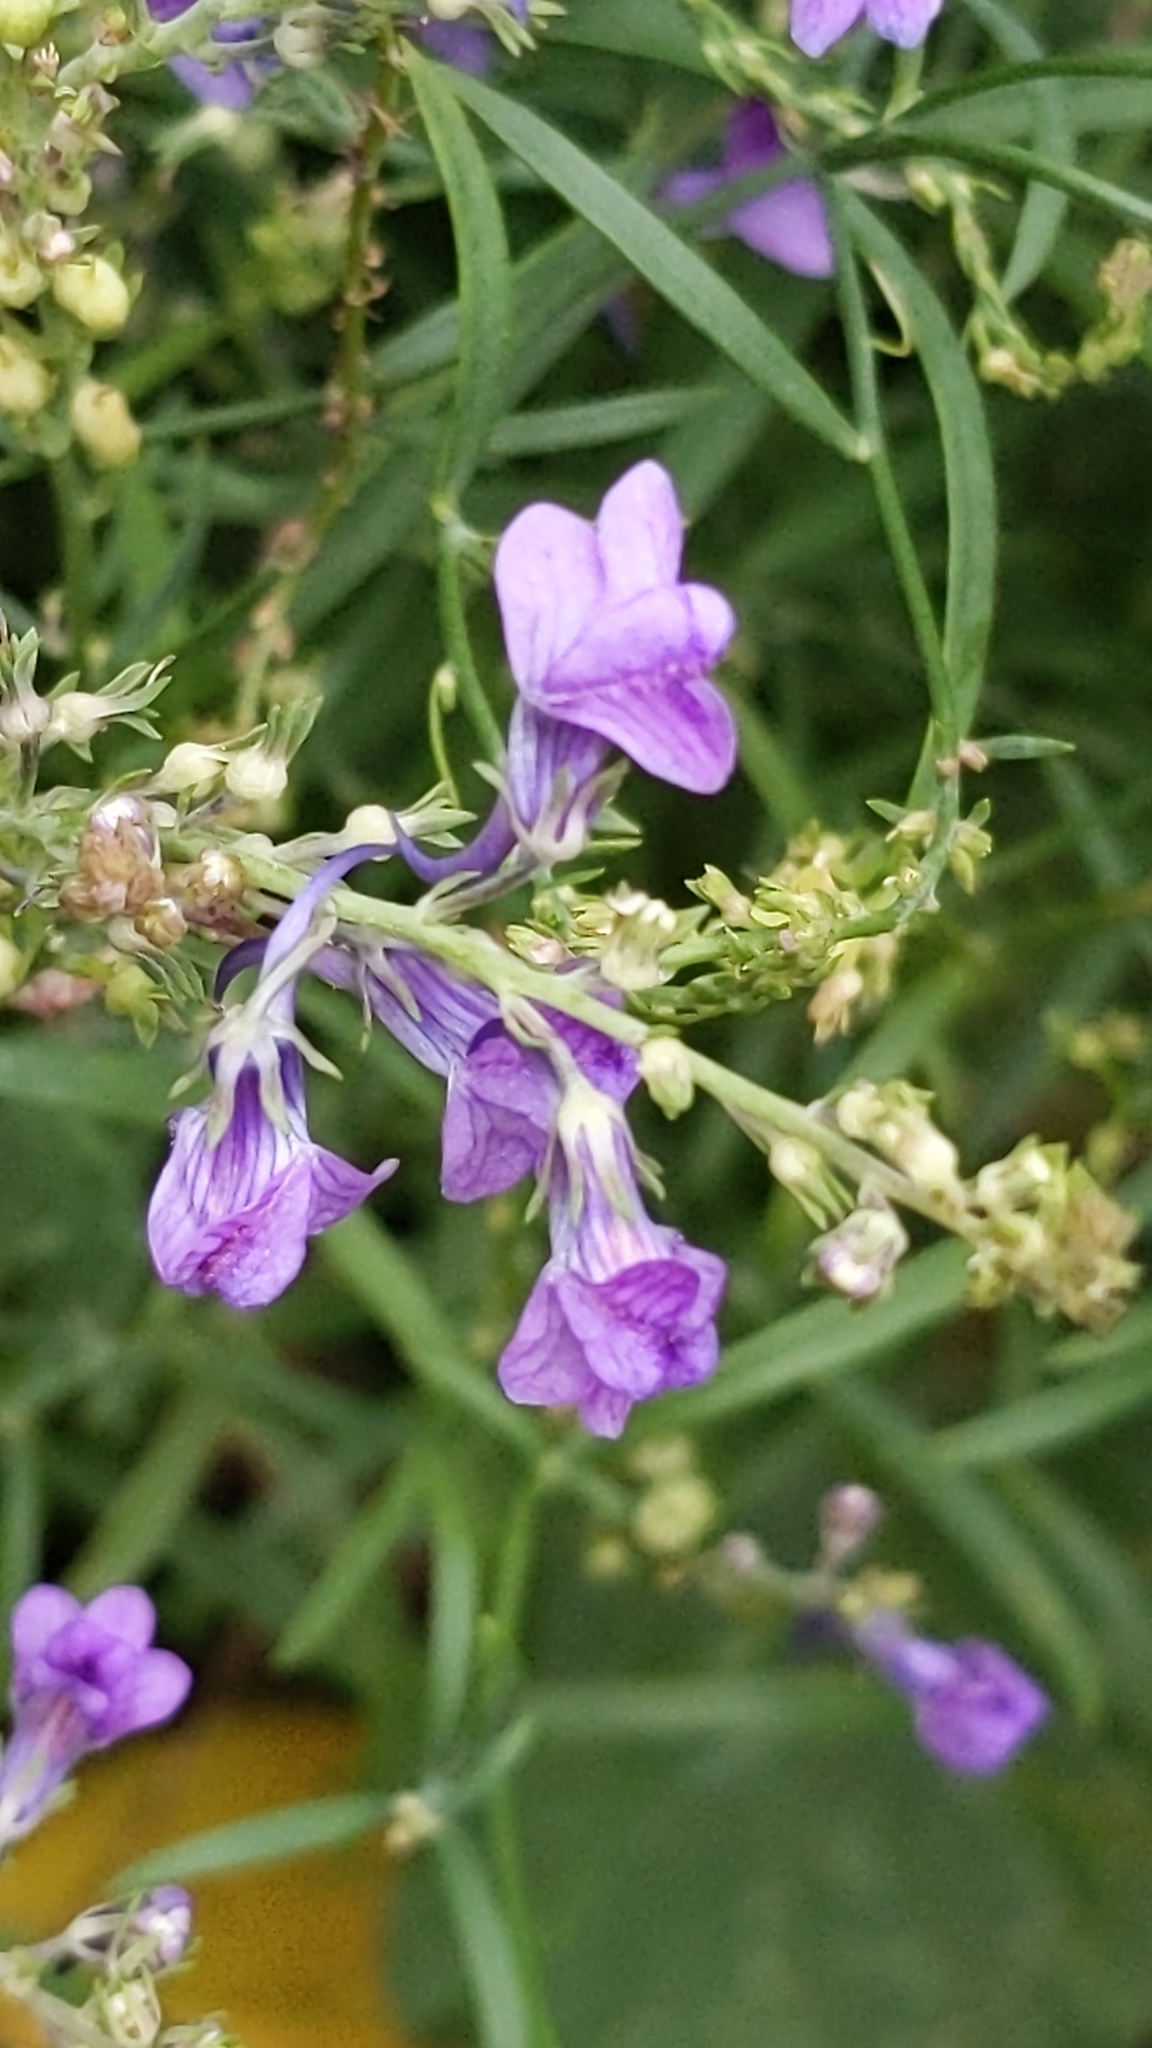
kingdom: Plantae
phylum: Tracheophyta
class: Magnoliopsida
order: Lamiales
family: Plantaginaceae
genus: Linaria
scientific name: Linaria purpurea
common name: Purple toadflax
